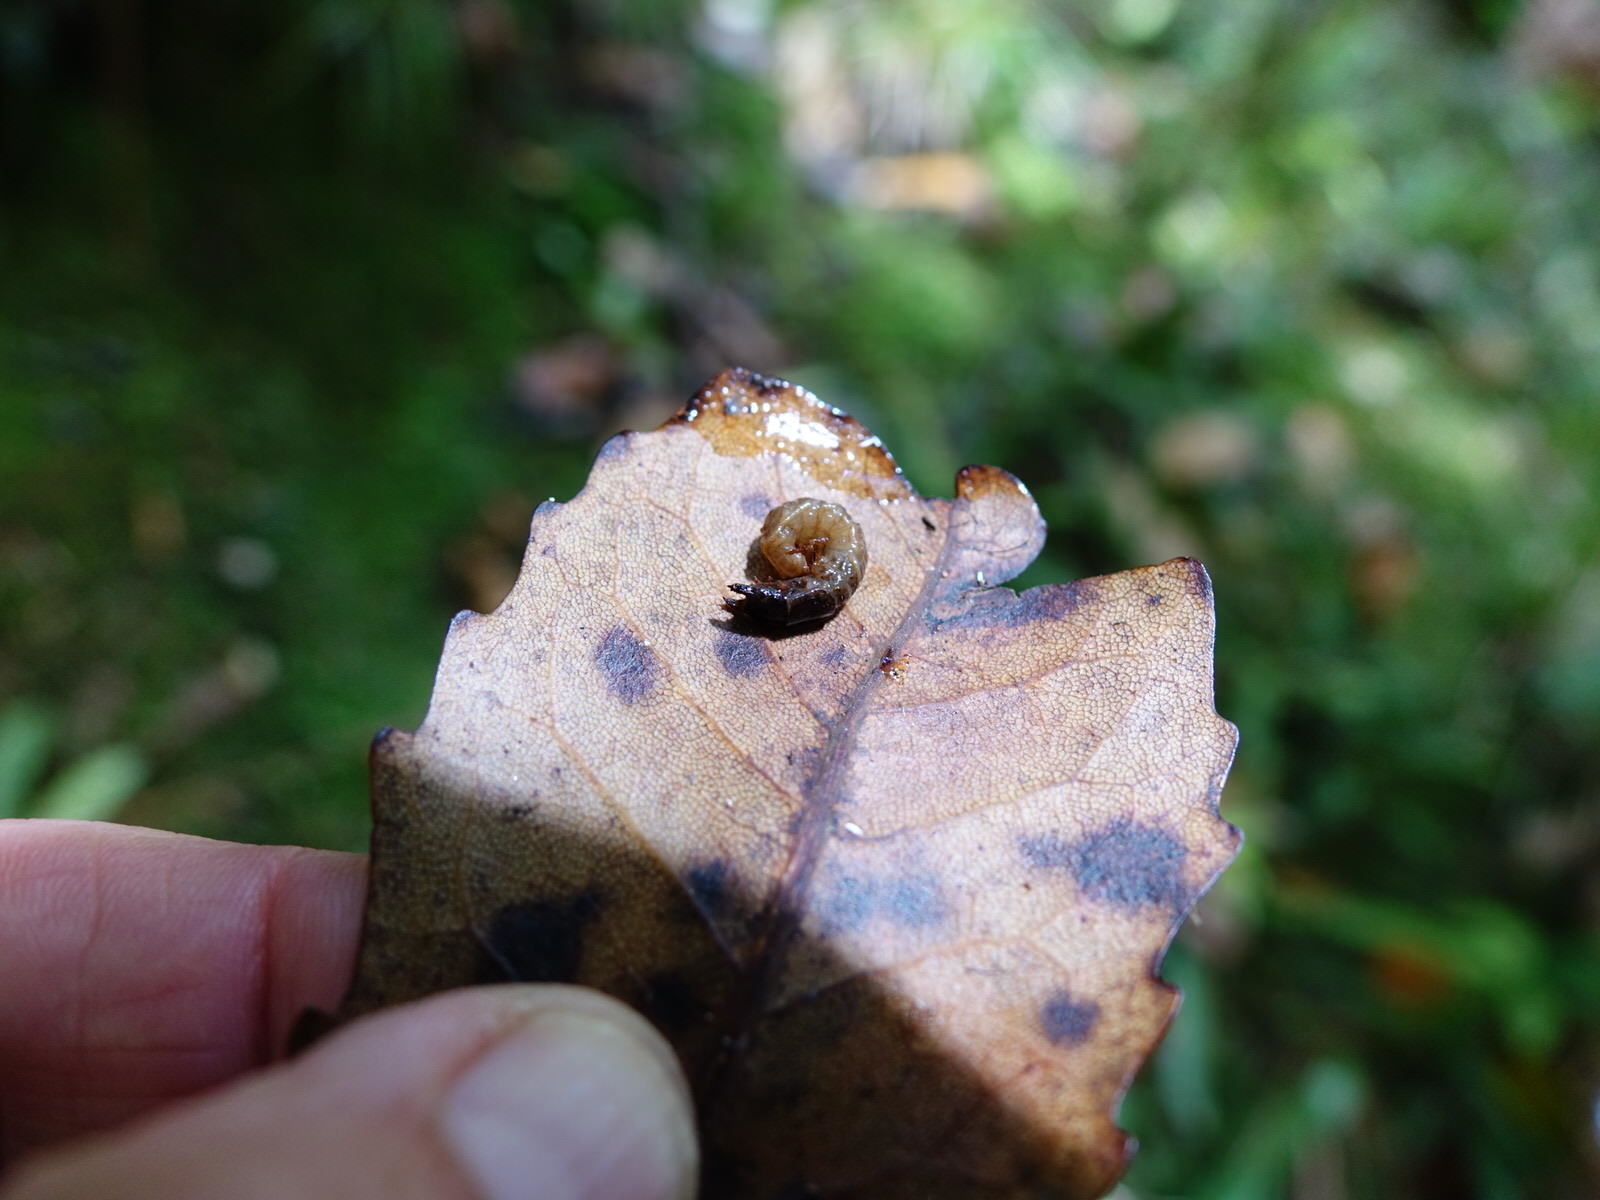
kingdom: Animalia
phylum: Arthropoda
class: Insecta
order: Megaloptera
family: Corydalidae
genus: Archichauliodes
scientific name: Archichauliodes diversus
